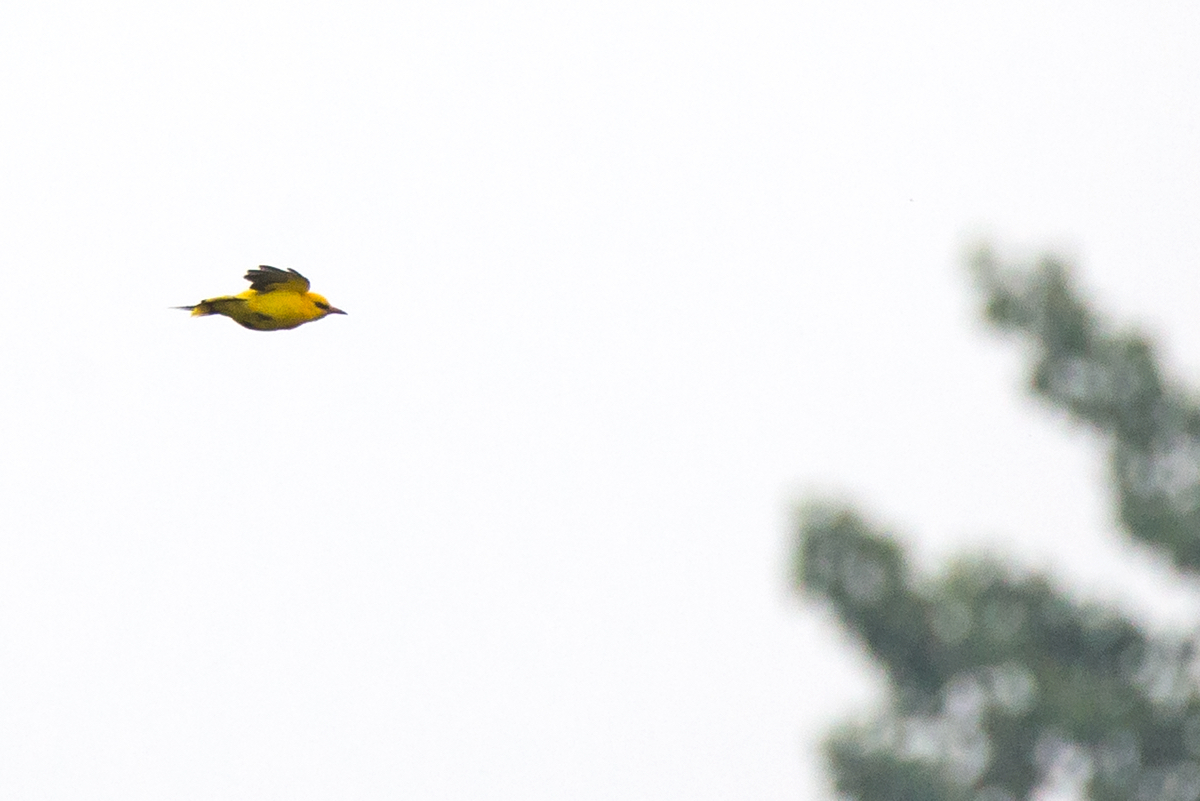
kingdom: Animalia
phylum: Chordata
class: Aves
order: Passeriformes
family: Oriolidae
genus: Oriolus
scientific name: Oriolus oriolus
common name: Eurasian golden oriole
